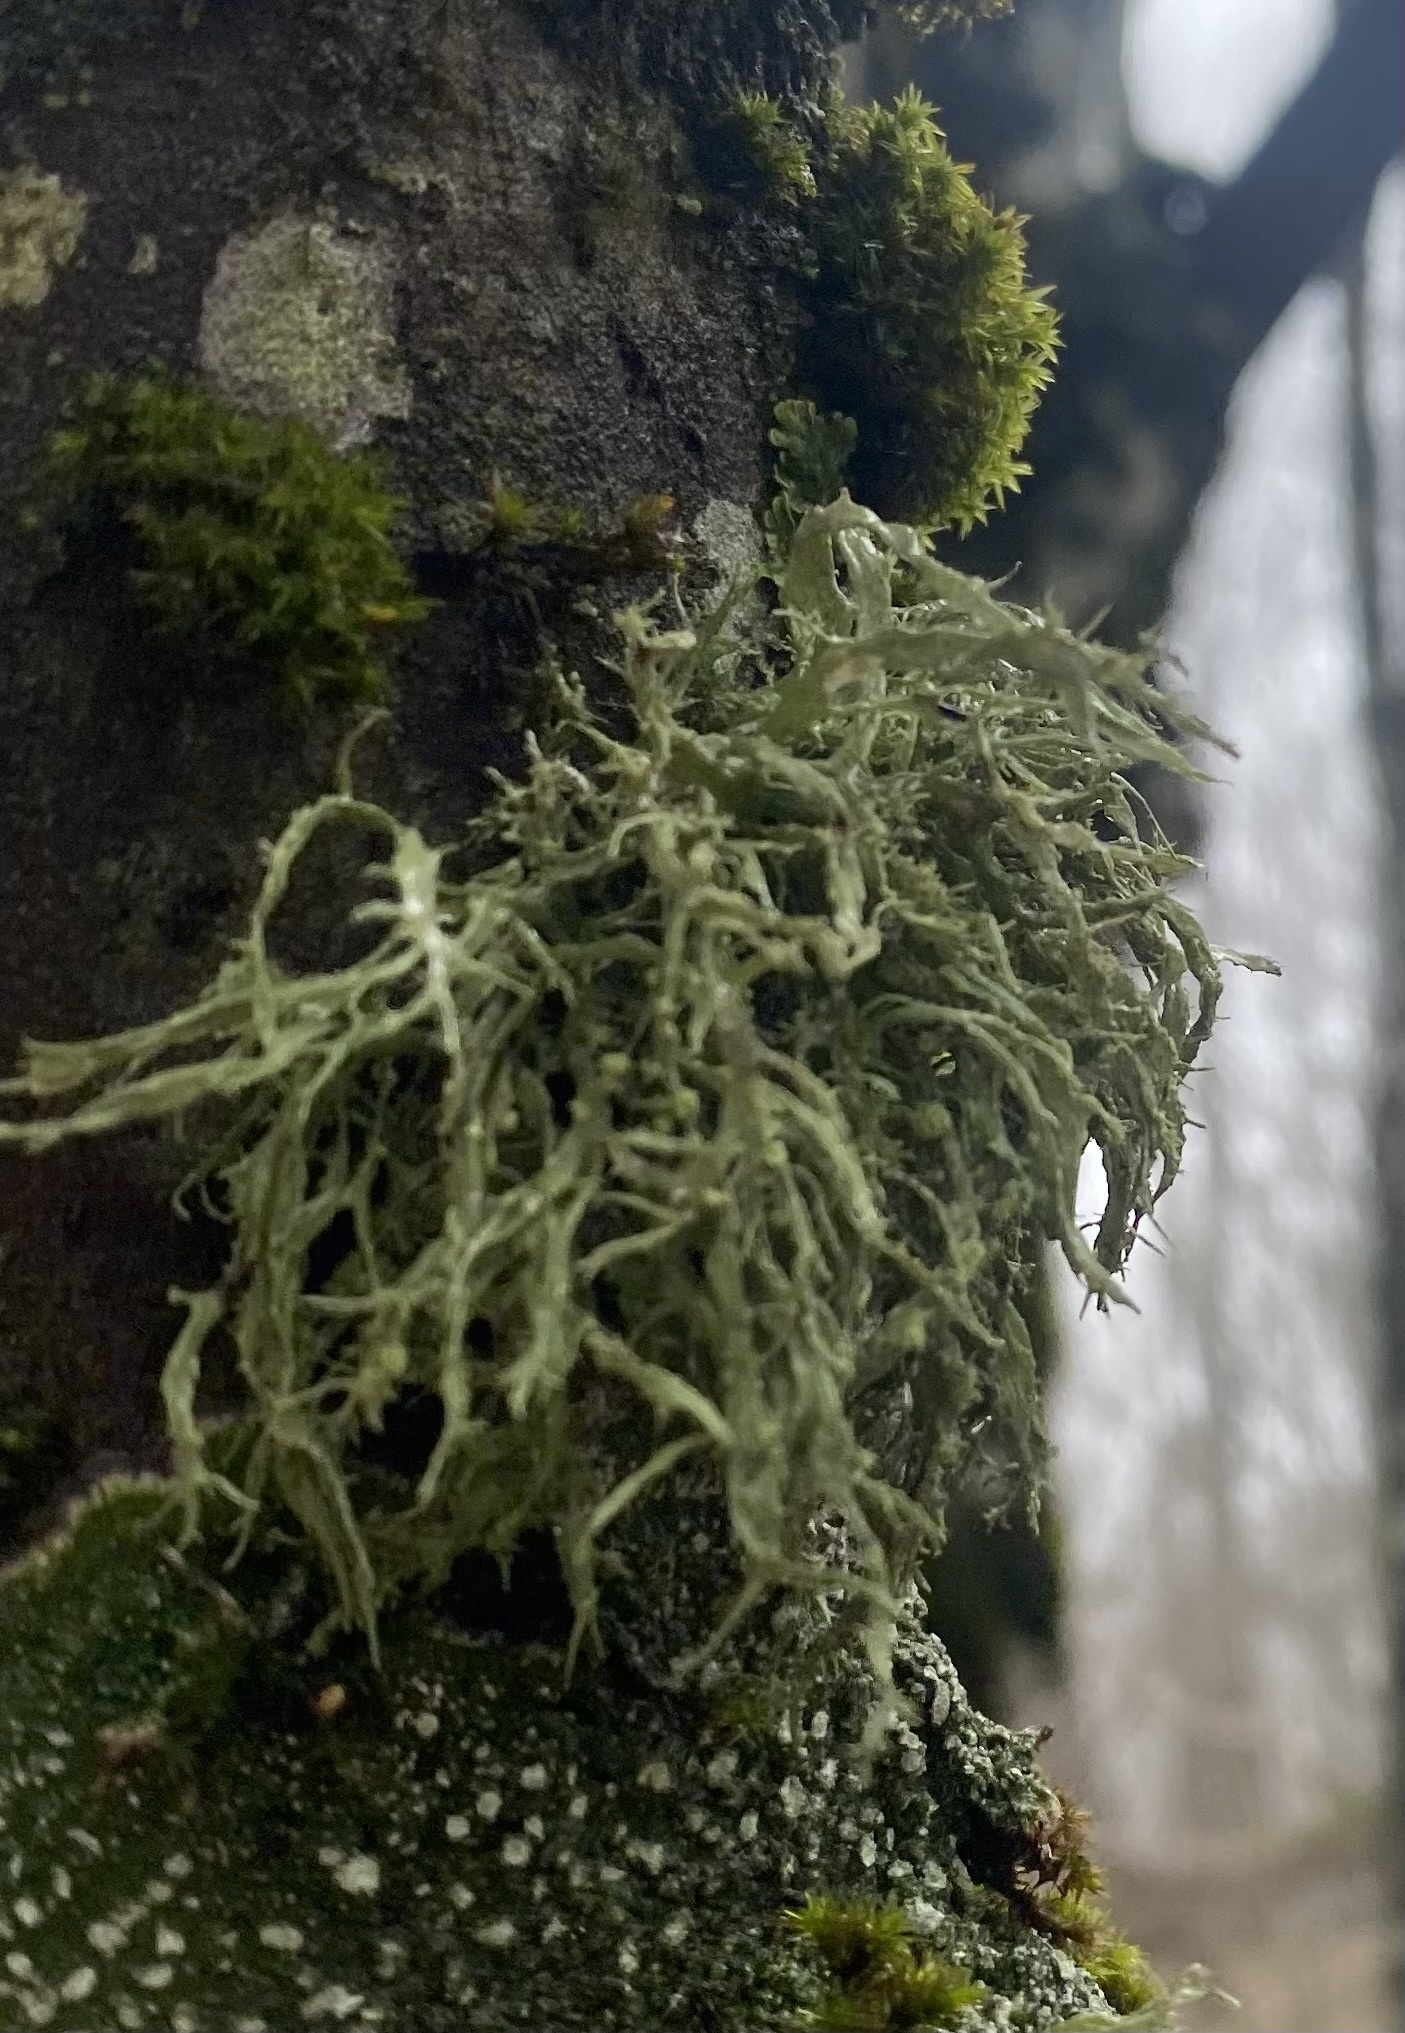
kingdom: Fungi
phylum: Ascomycota
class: Lecanoromycetes
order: Lecanorales
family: Ramalinaceae
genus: Ramalina
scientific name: Ramalina farinacea
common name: Farinose cartilage lichen
